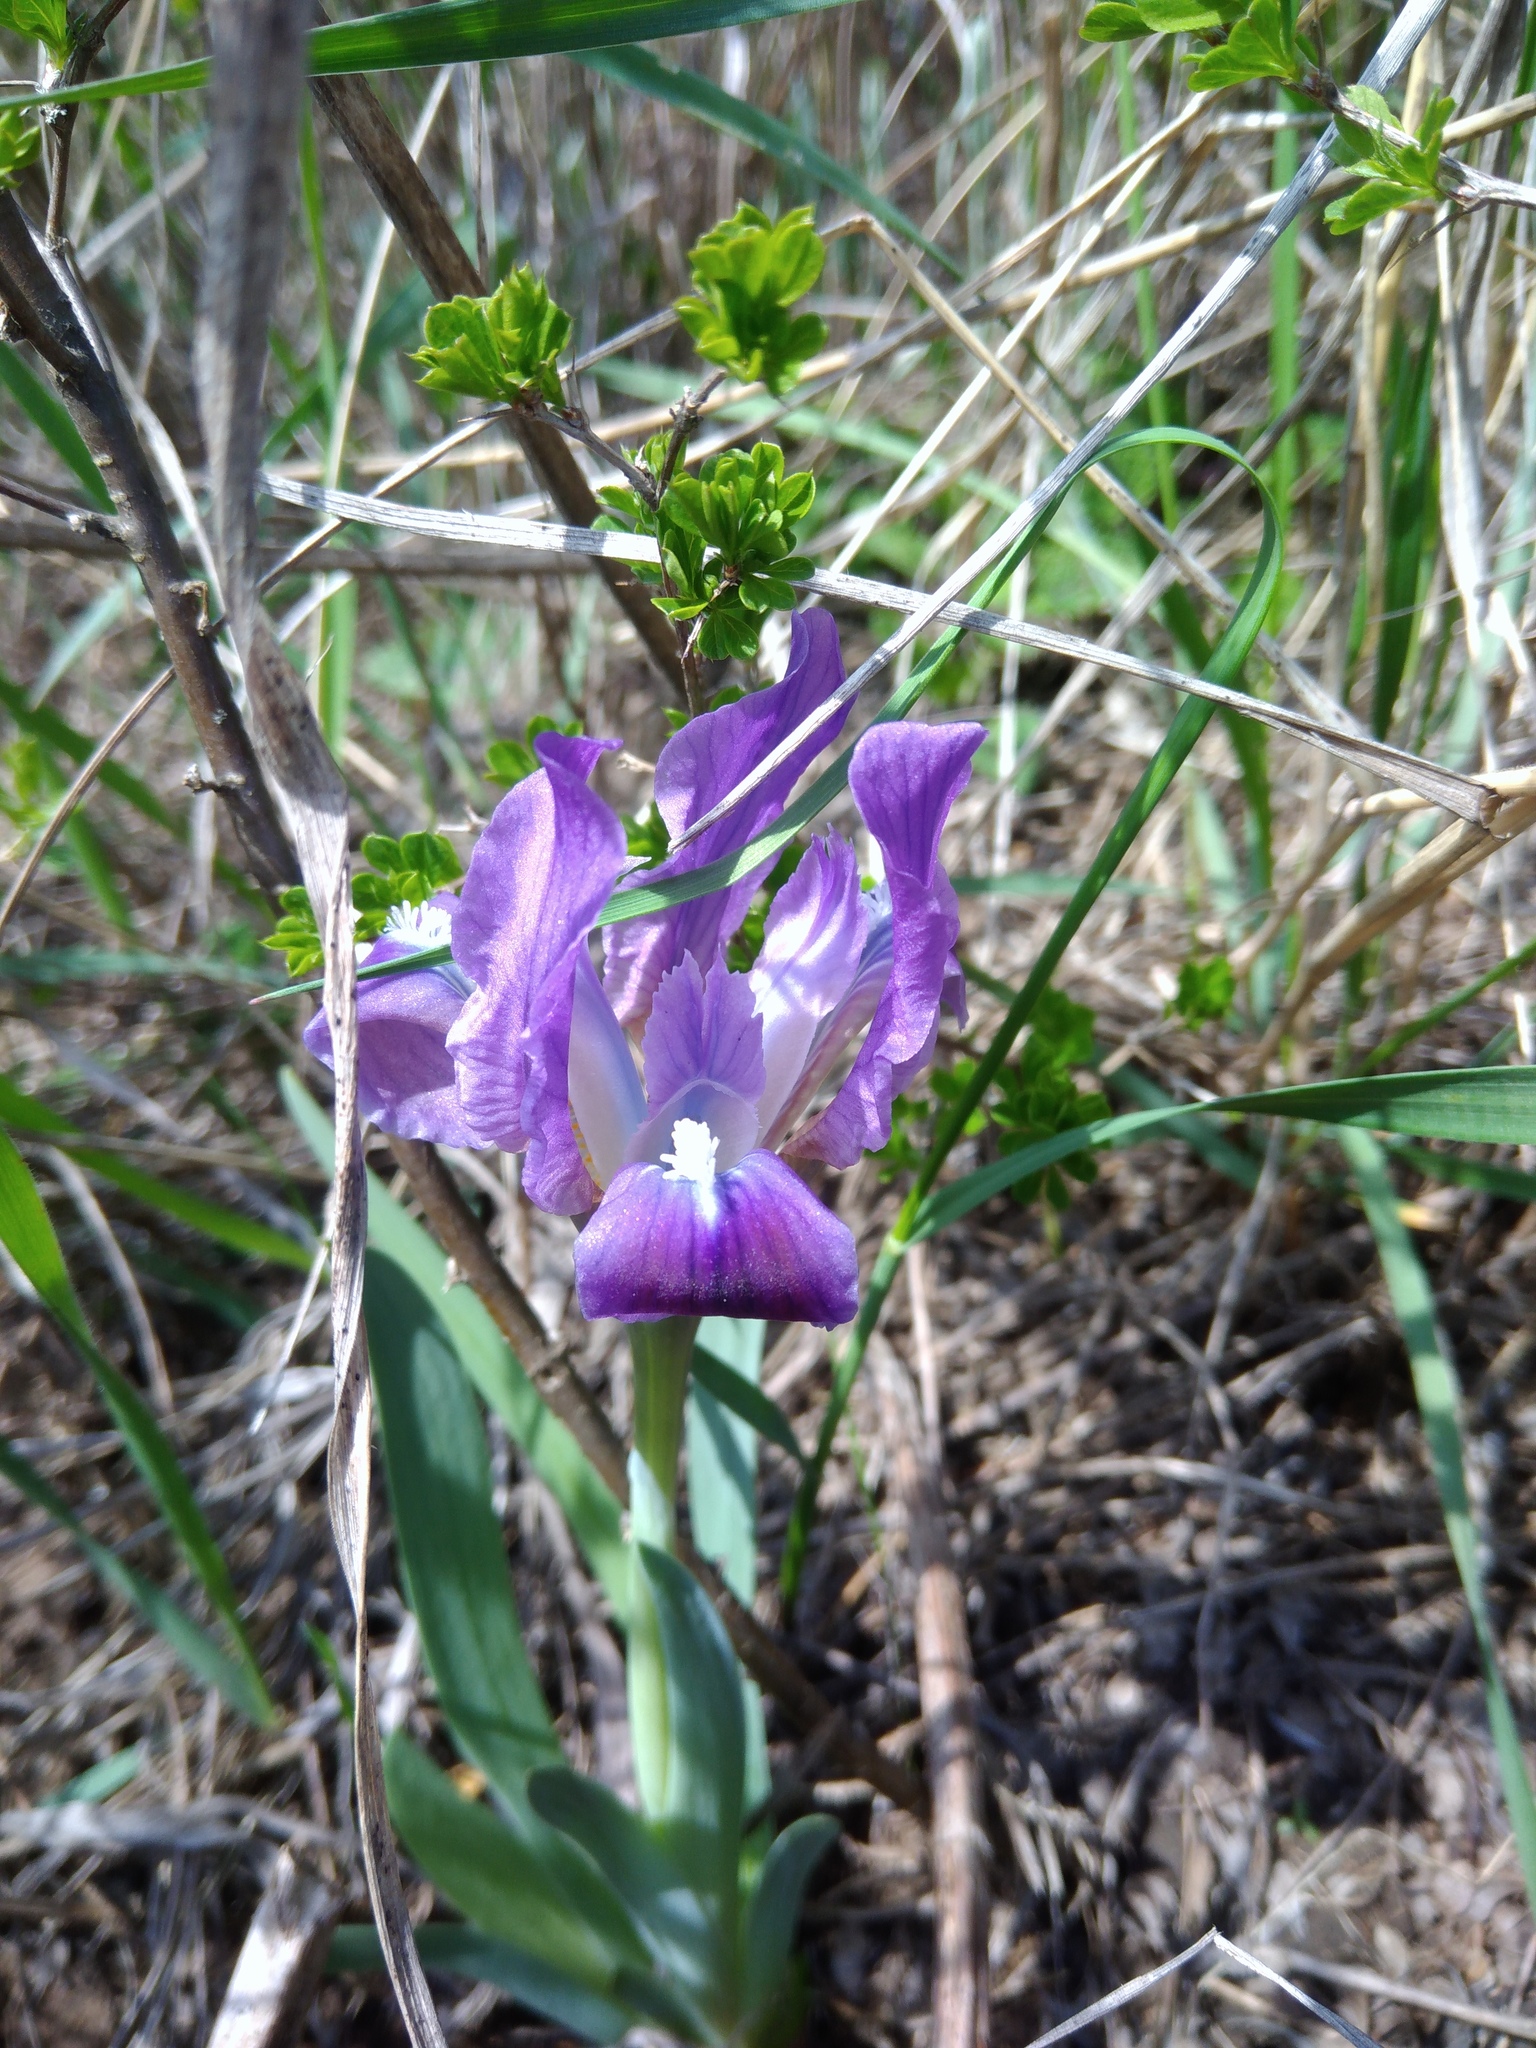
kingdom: Plantae
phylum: Tracheophyta
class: Liliopsida
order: Asparagales
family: Iridaceae
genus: Iris
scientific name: Iris pumila
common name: Dwarf iris
